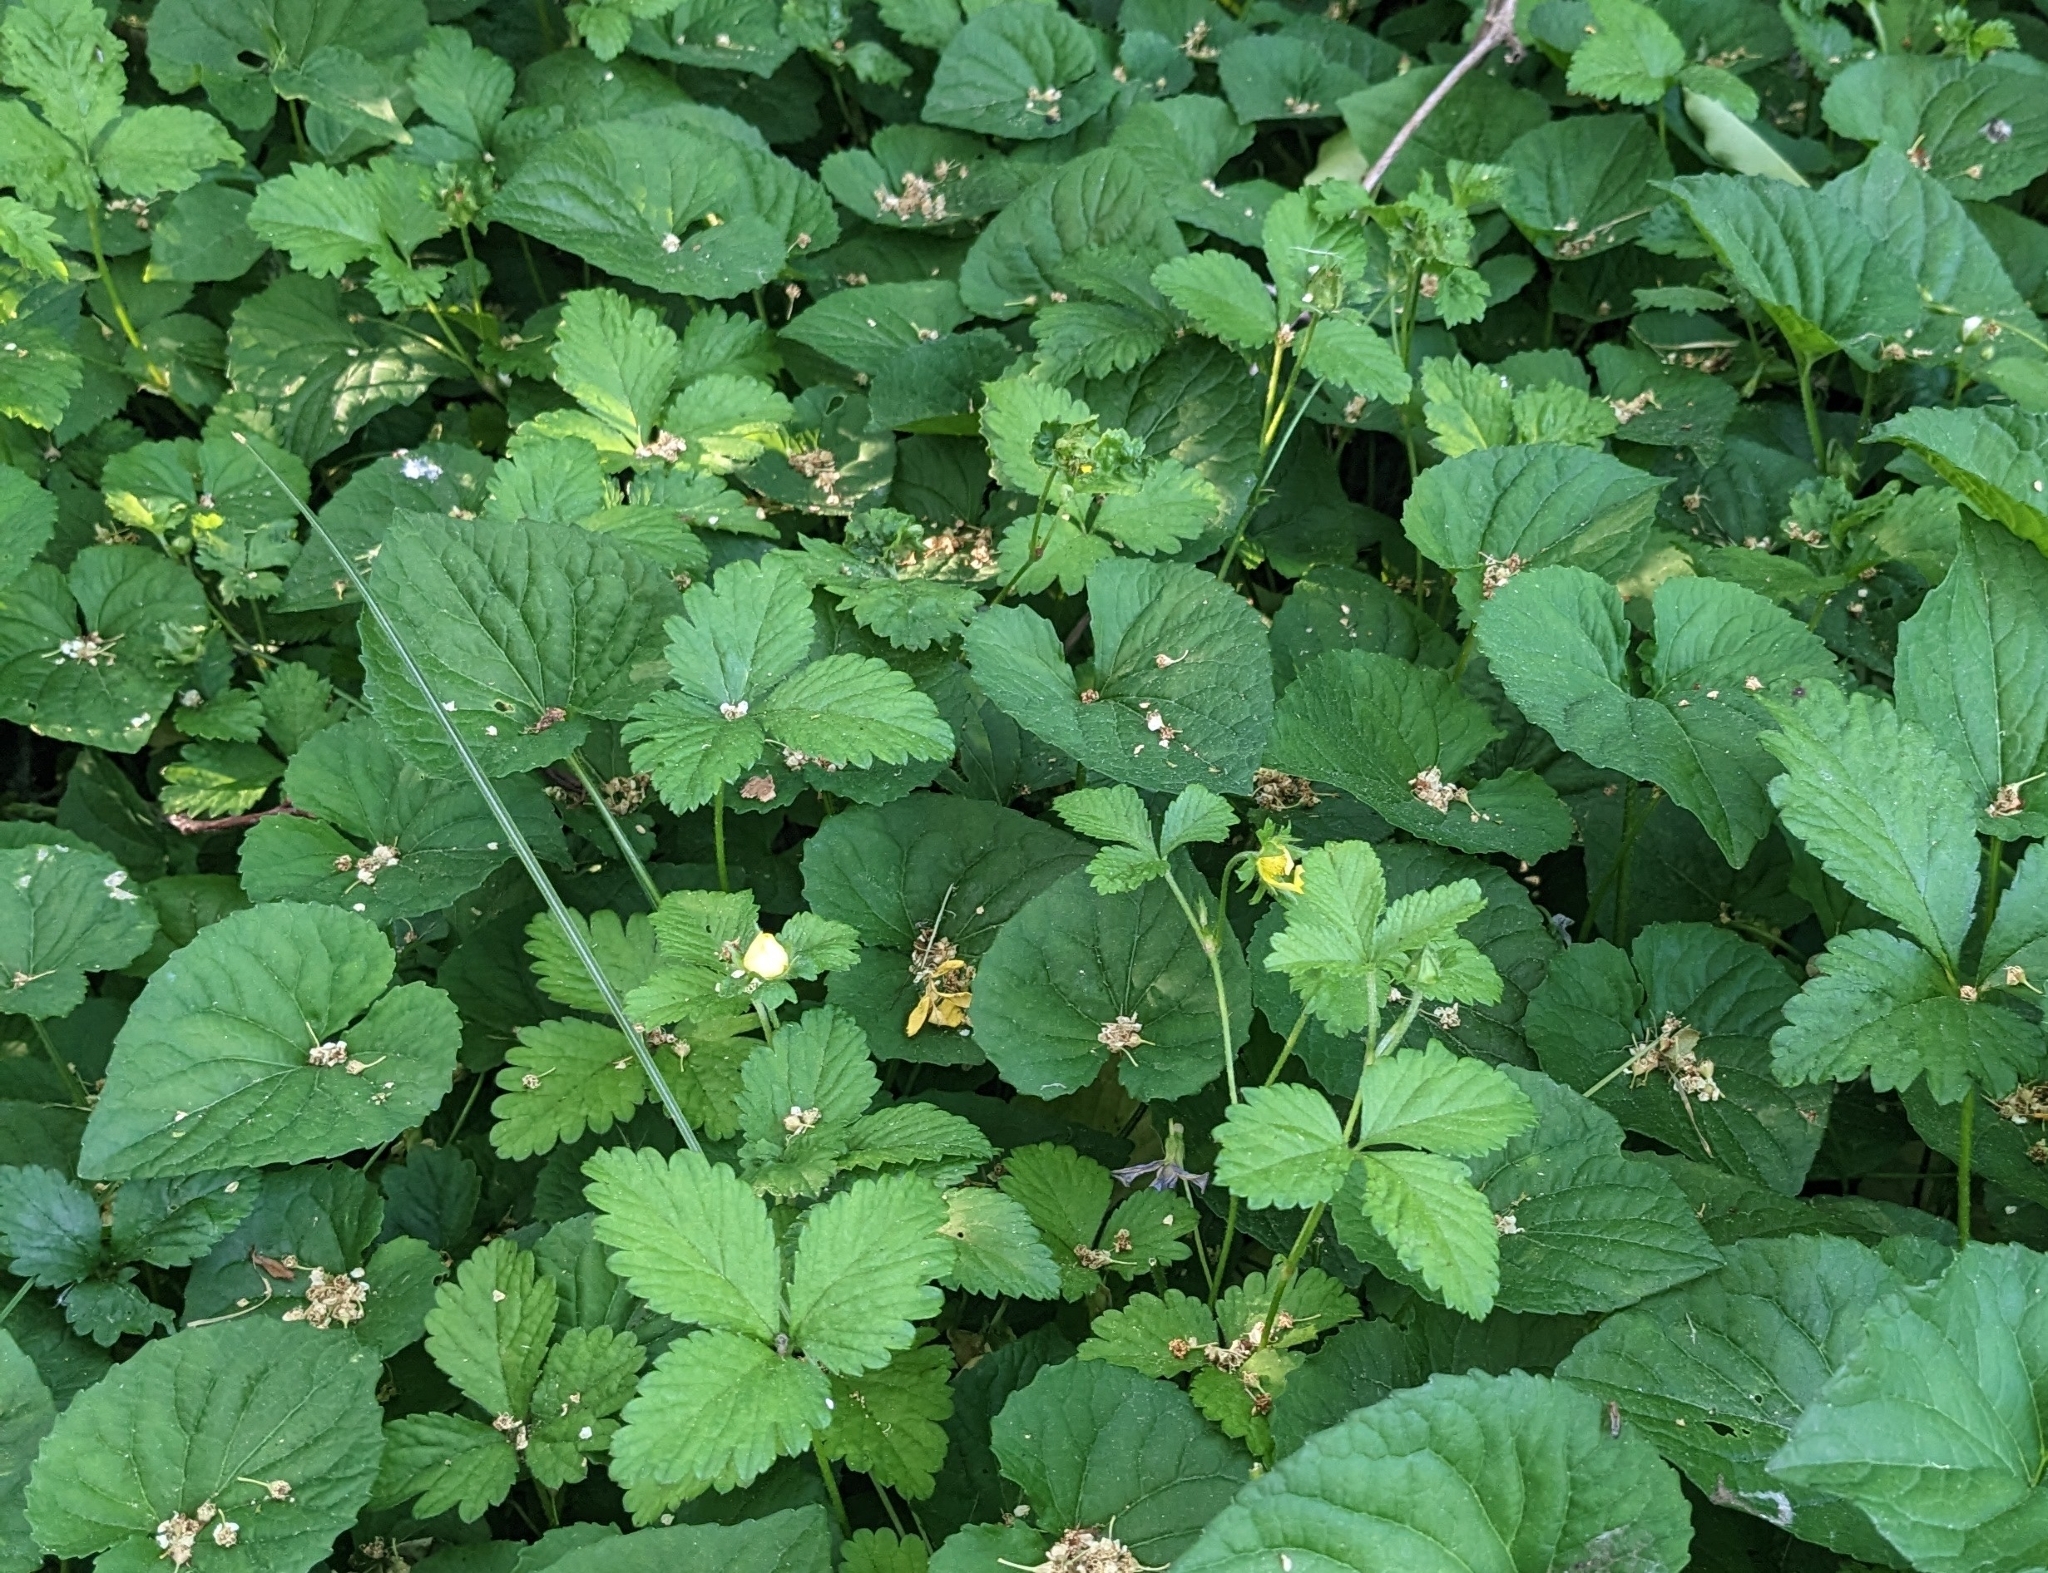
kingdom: Plantae
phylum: Tracheophyta
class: Magnoliopsida
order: Rosales
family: Rosaceae
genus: Potentilla
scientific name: Potentilla indica
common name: Yellow-flowered strawberry
